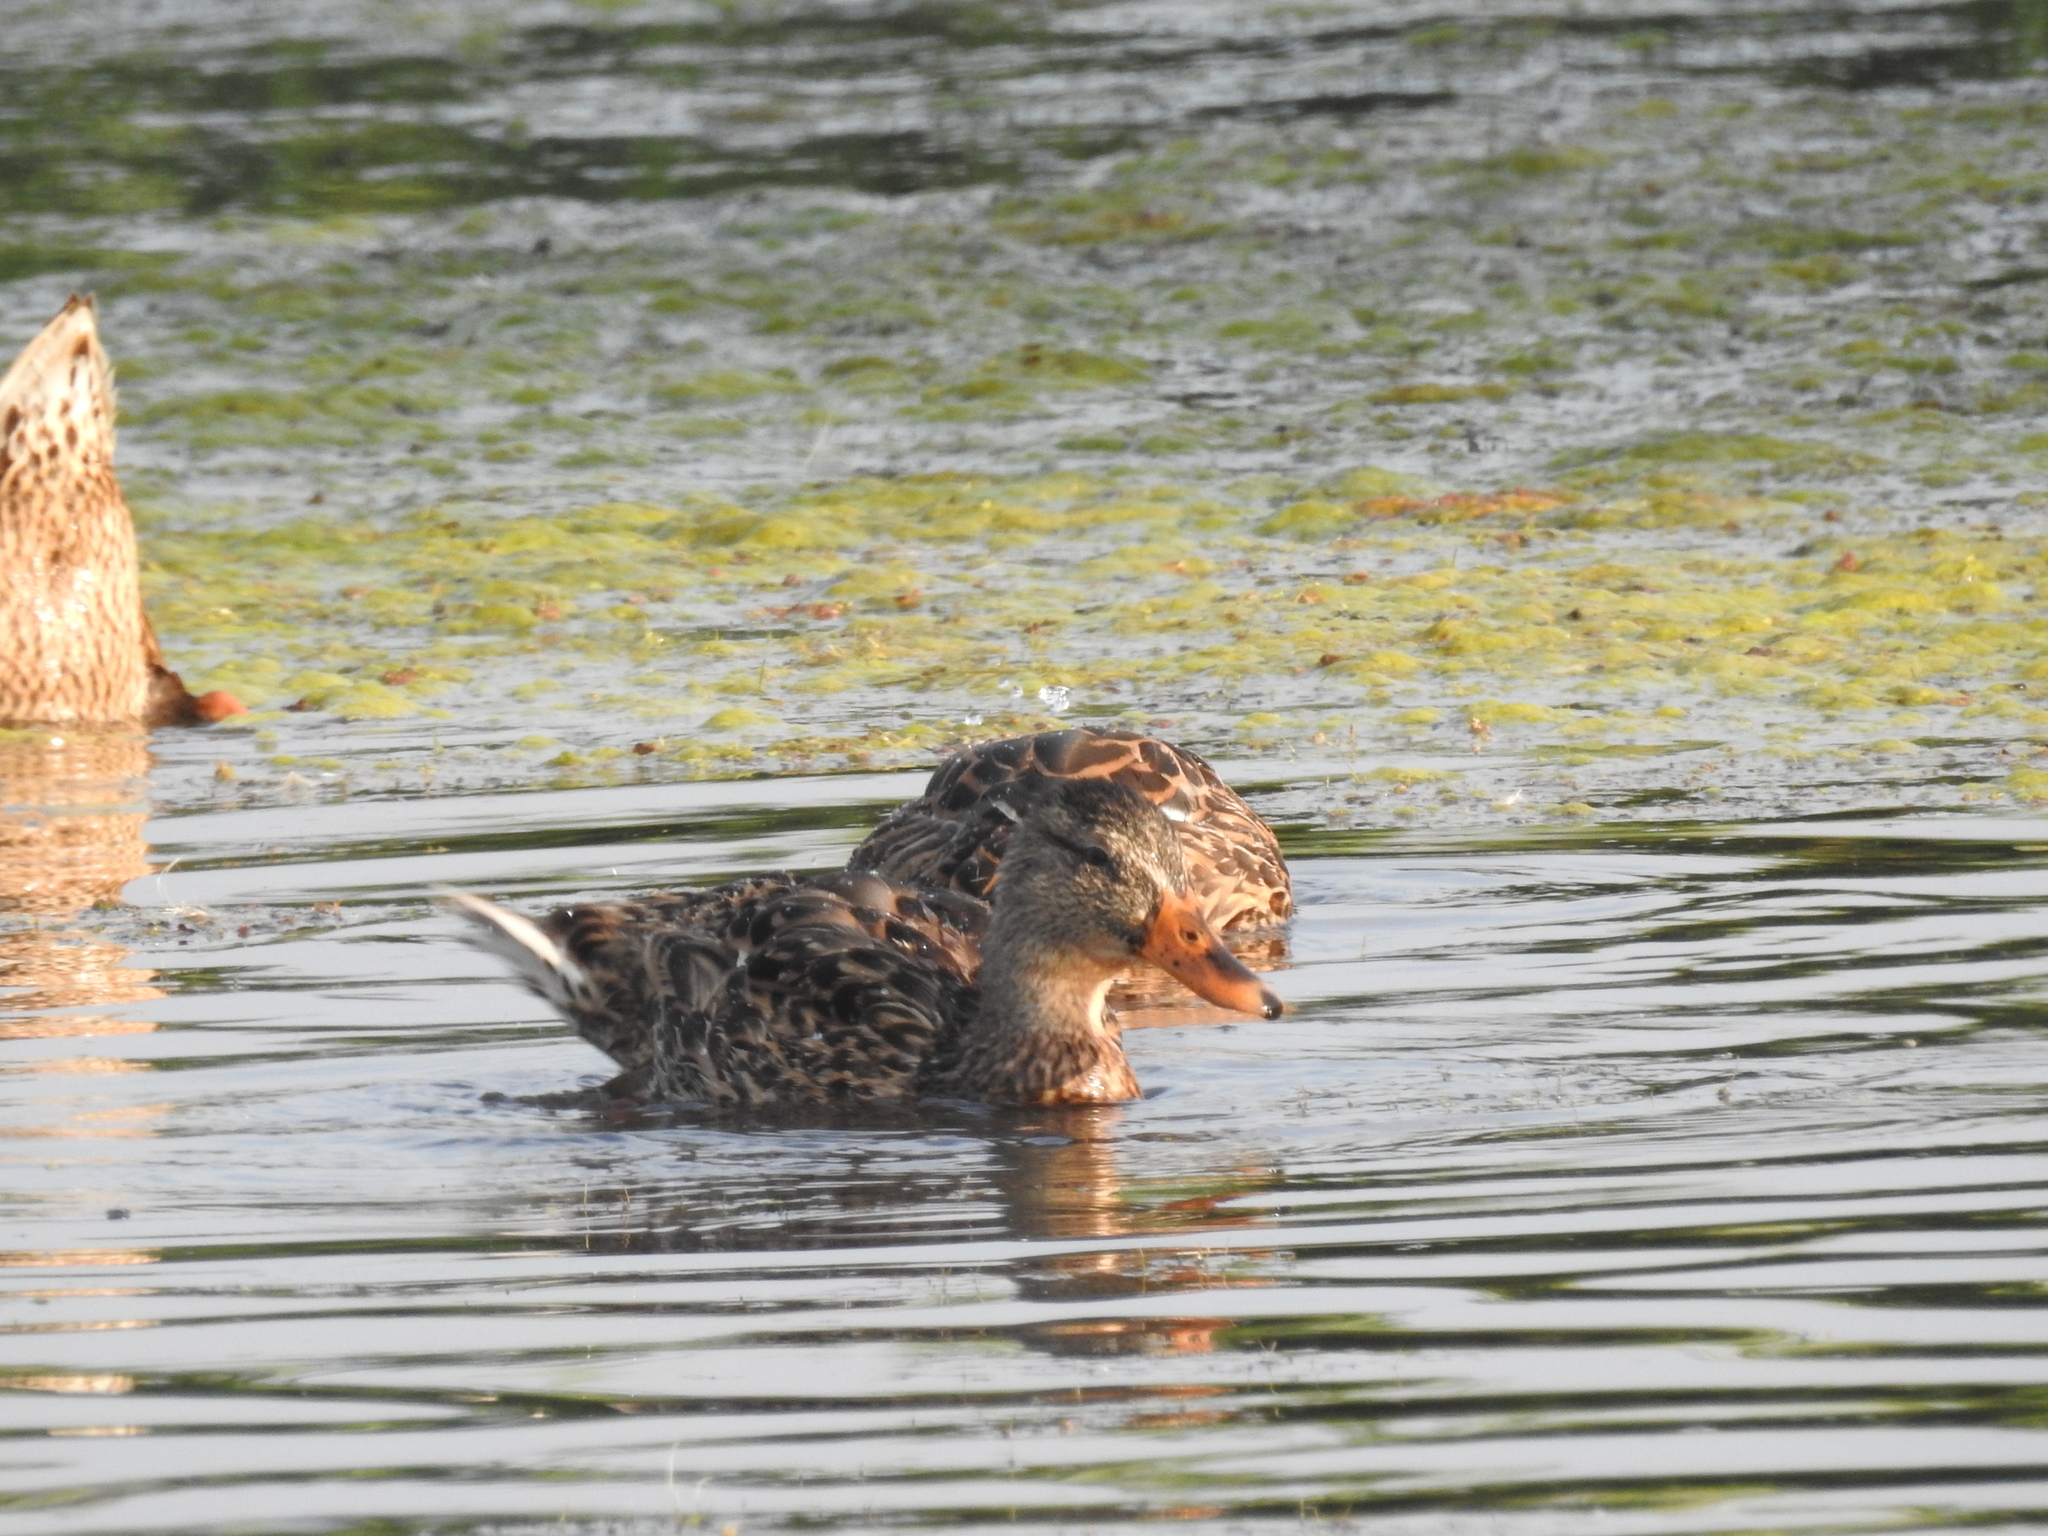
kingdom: Animalia
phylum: Chordata
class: Aves
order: Anseriformes
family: Anatidae
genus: Anas
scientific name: Anas platyrhynchos
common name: Mallard
